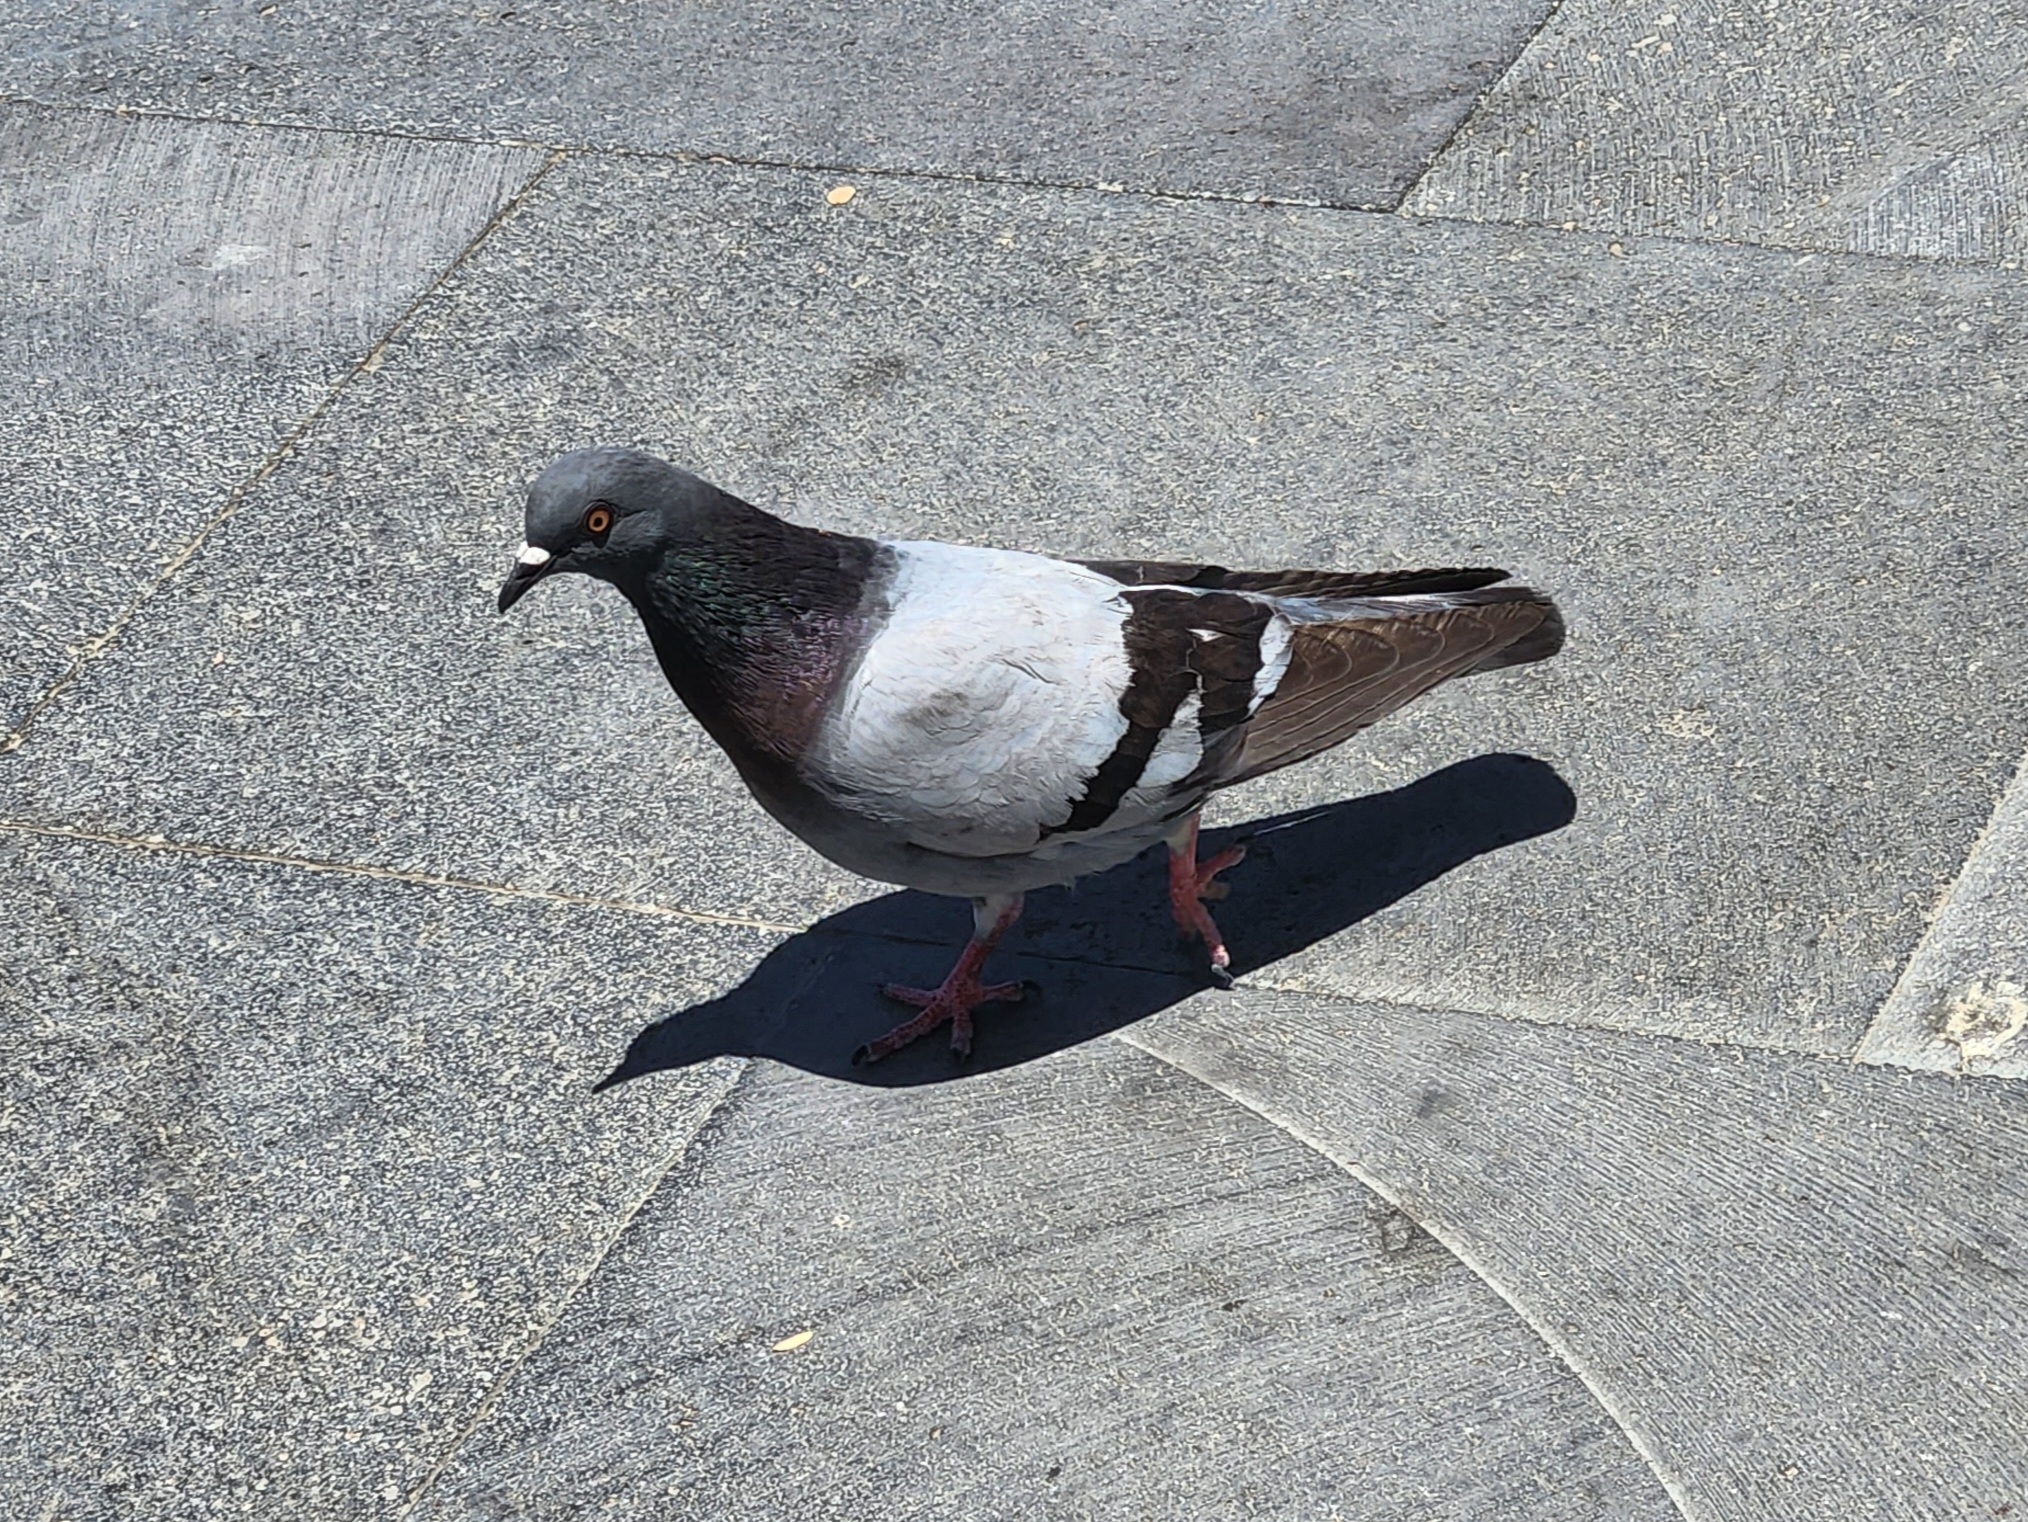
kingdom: Animalia
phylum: Chordata
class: Aves
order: Columbiformes
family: Columbidae
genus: Columba
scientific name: Columba livia
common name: Rock pigeon
